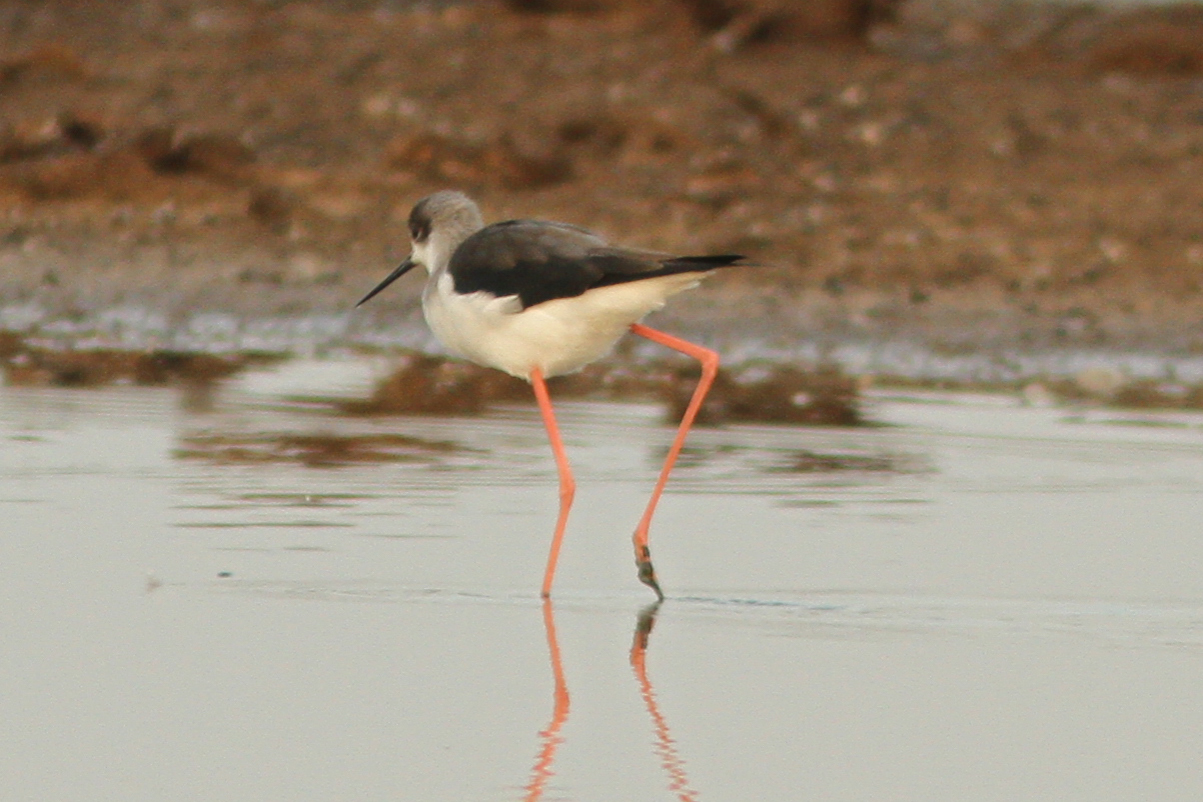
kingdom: Animalia
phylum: Chordata
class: Aves
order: Charadriiformes
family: Recurvirostridae
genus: Himantopus
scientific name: Himantopus himantopus
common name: Black-winged stilt
